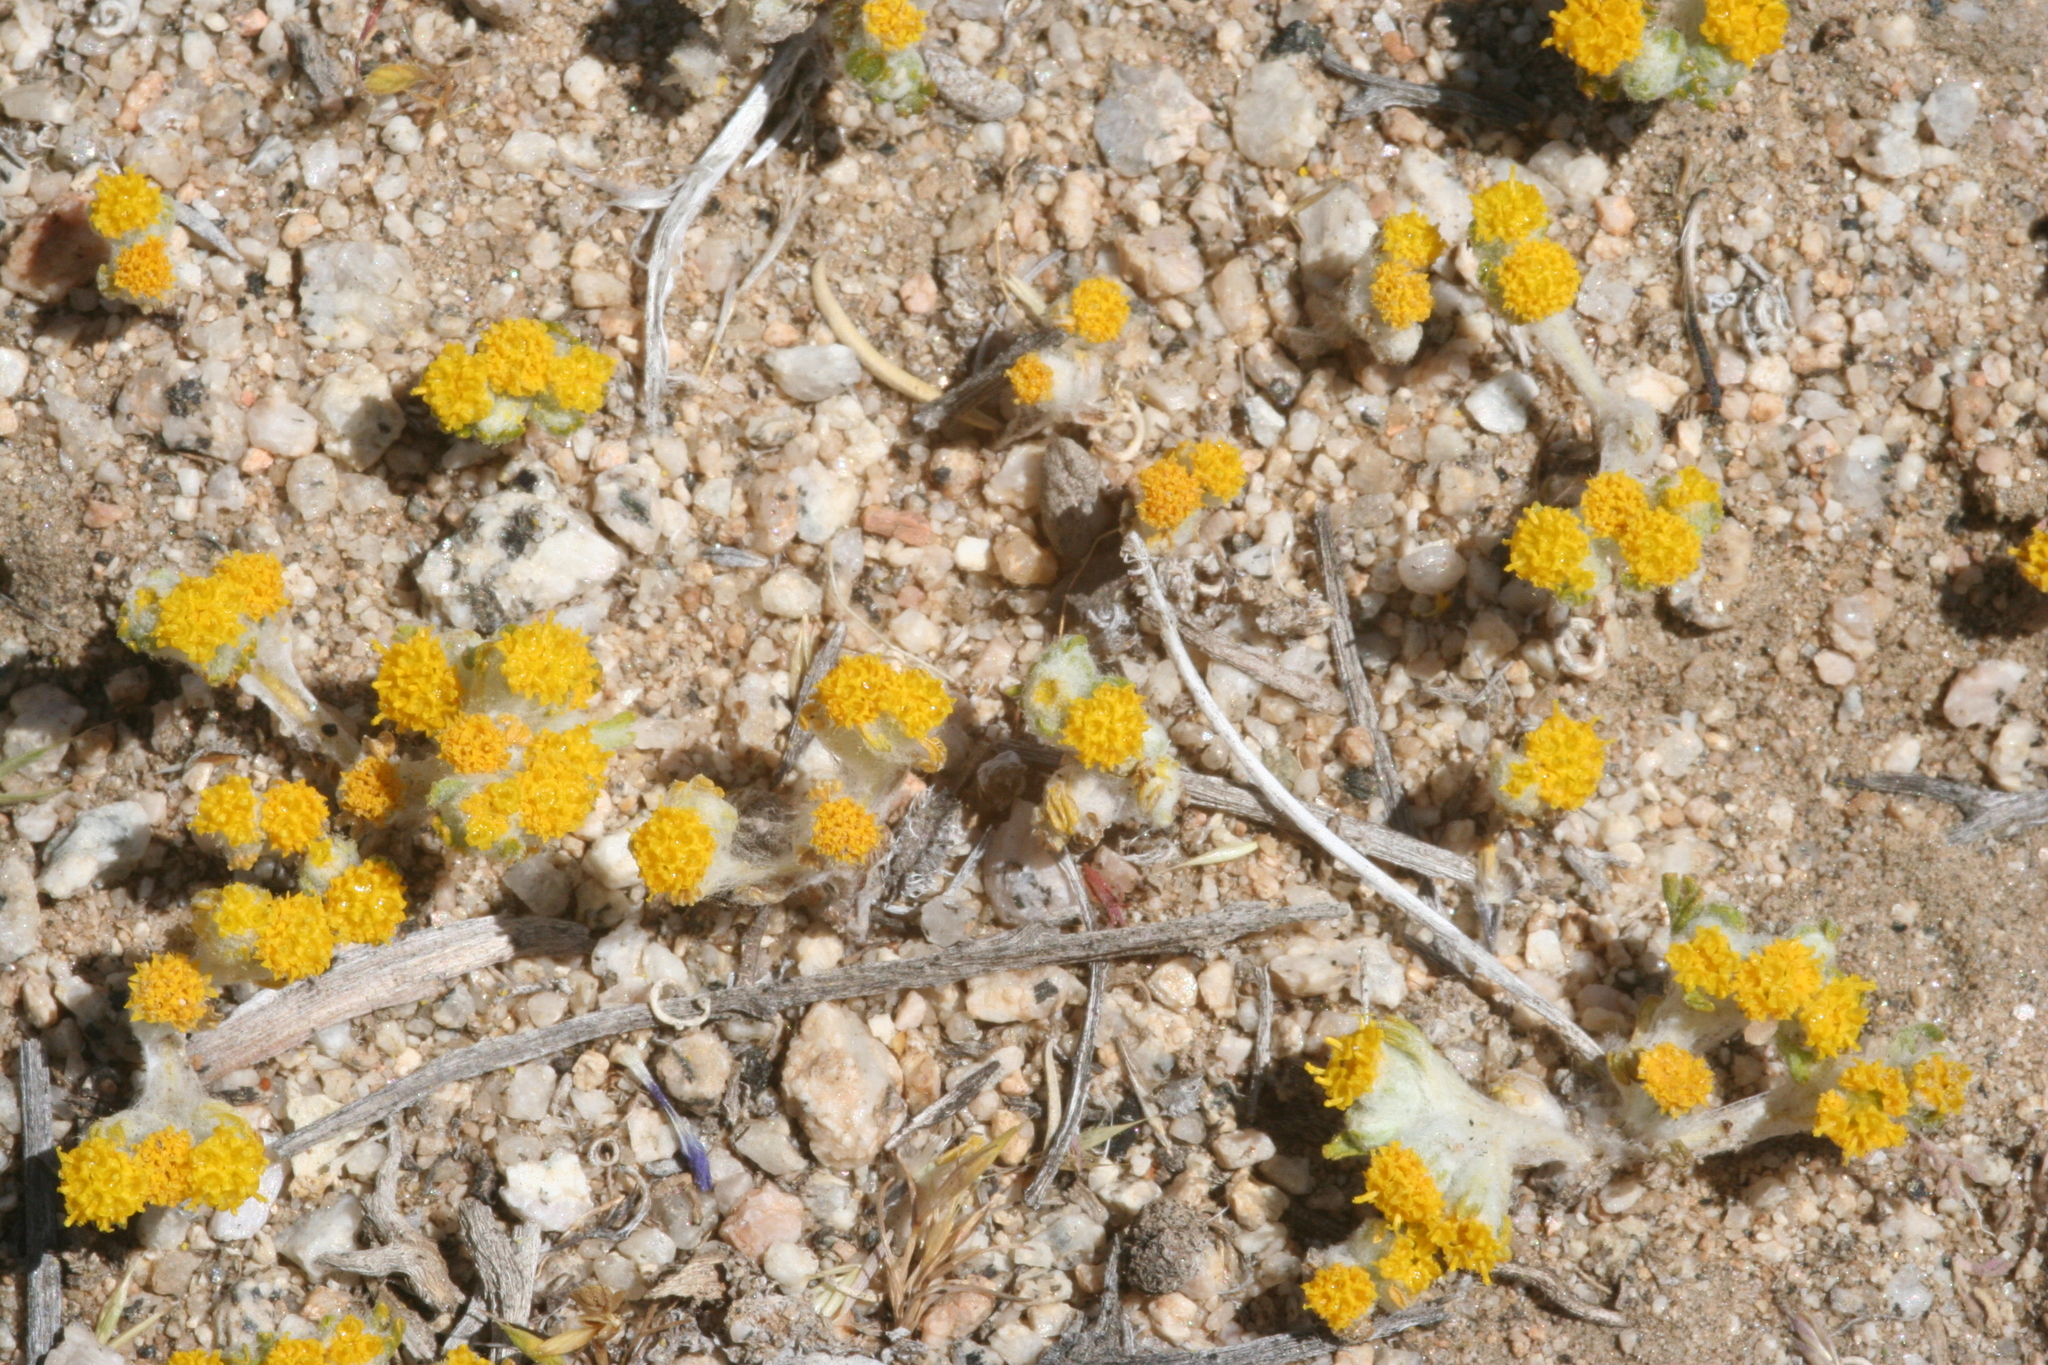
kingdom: Plantae
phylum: Tracheophyta
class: Magnoliopsida
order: Asterales
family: Asteraceae
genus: Eriophyllum
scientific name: Eriophyllum pringlei
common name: Pringle's woolly-sunflower
